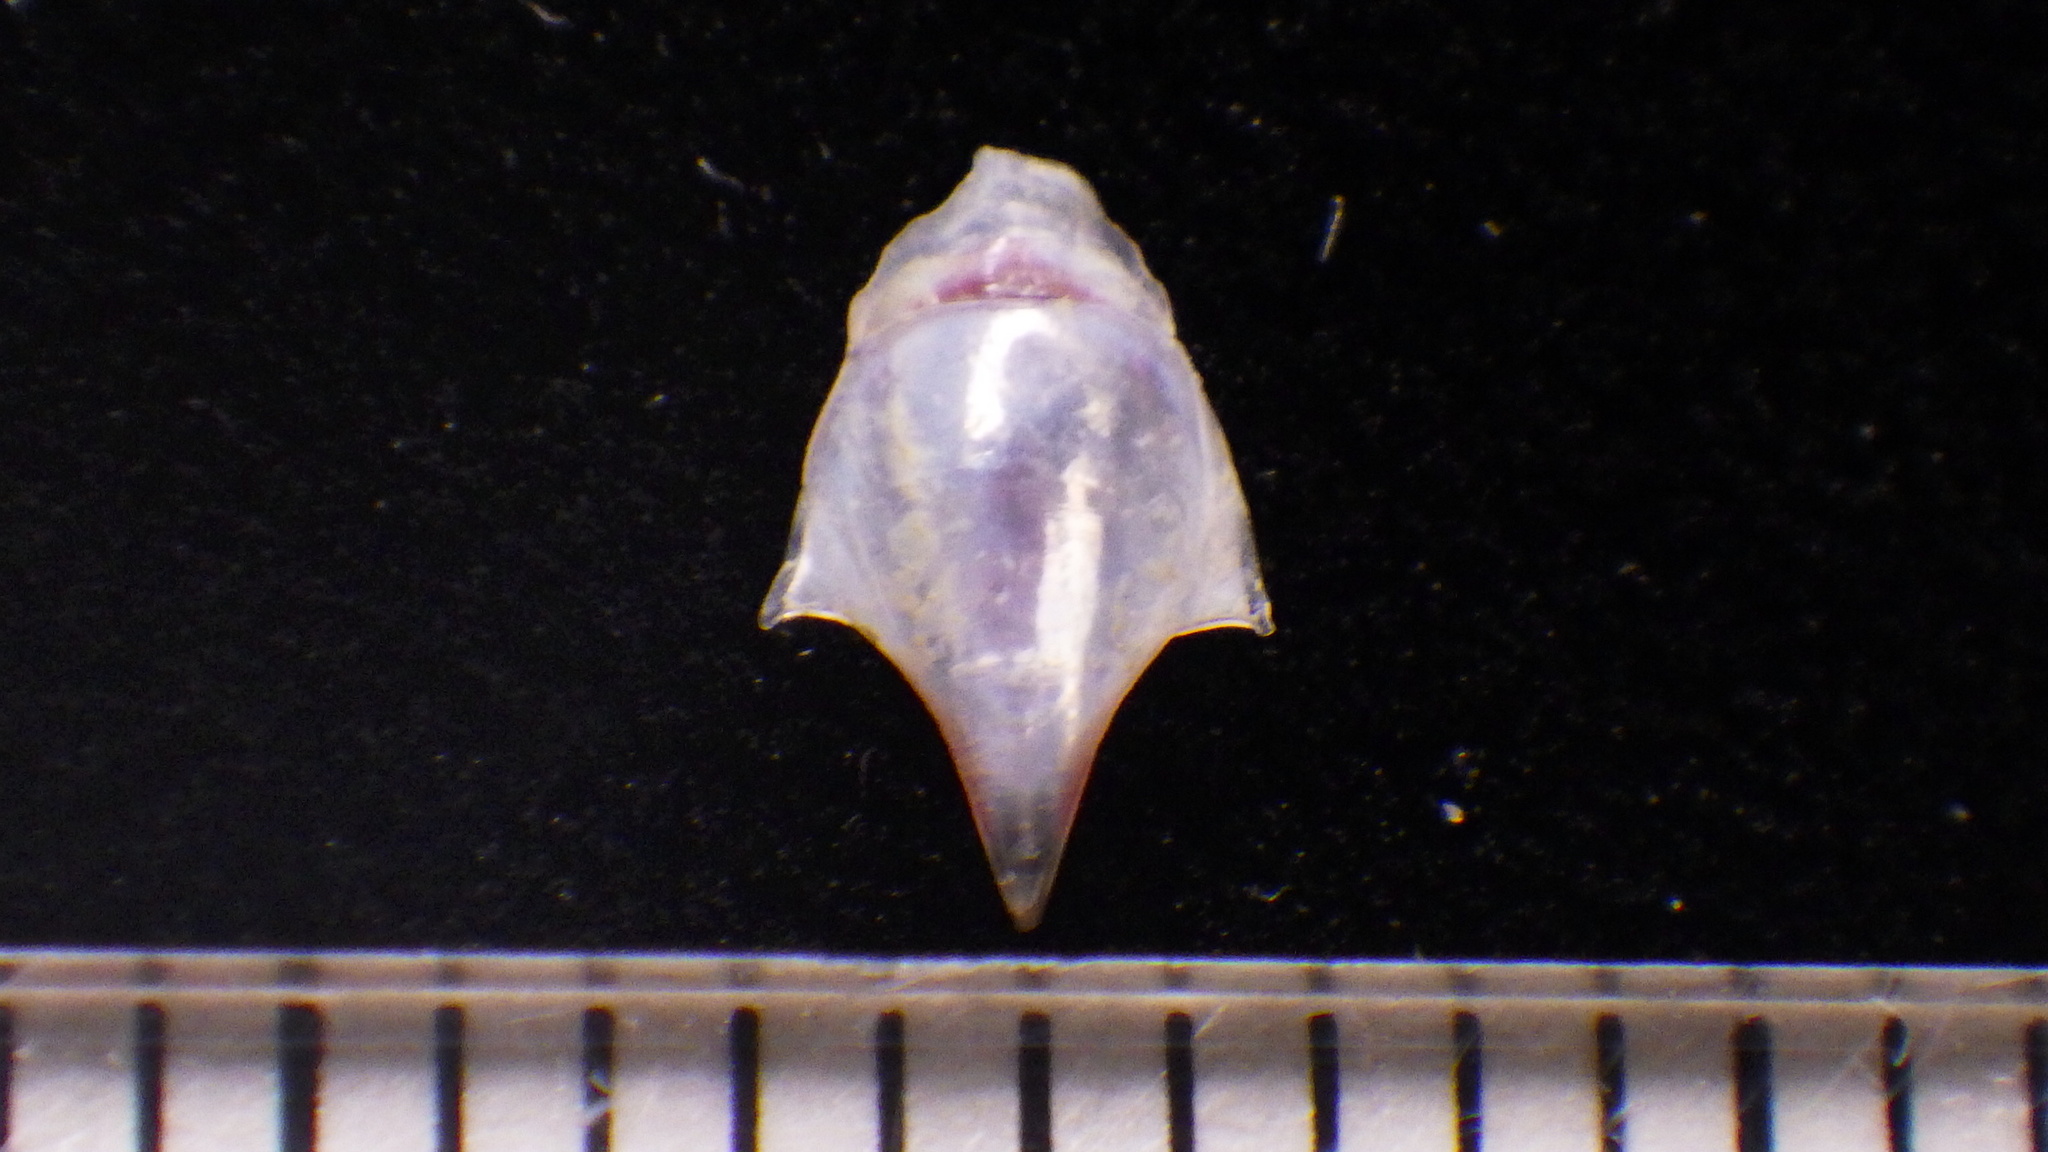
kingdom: Animalia
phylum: Mollusca
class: Gastropoda
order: Pteropoda
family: Cavoliniidae
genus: Cavolinia
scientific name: Cavolinia inflexa
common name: Inflexed cavoline
